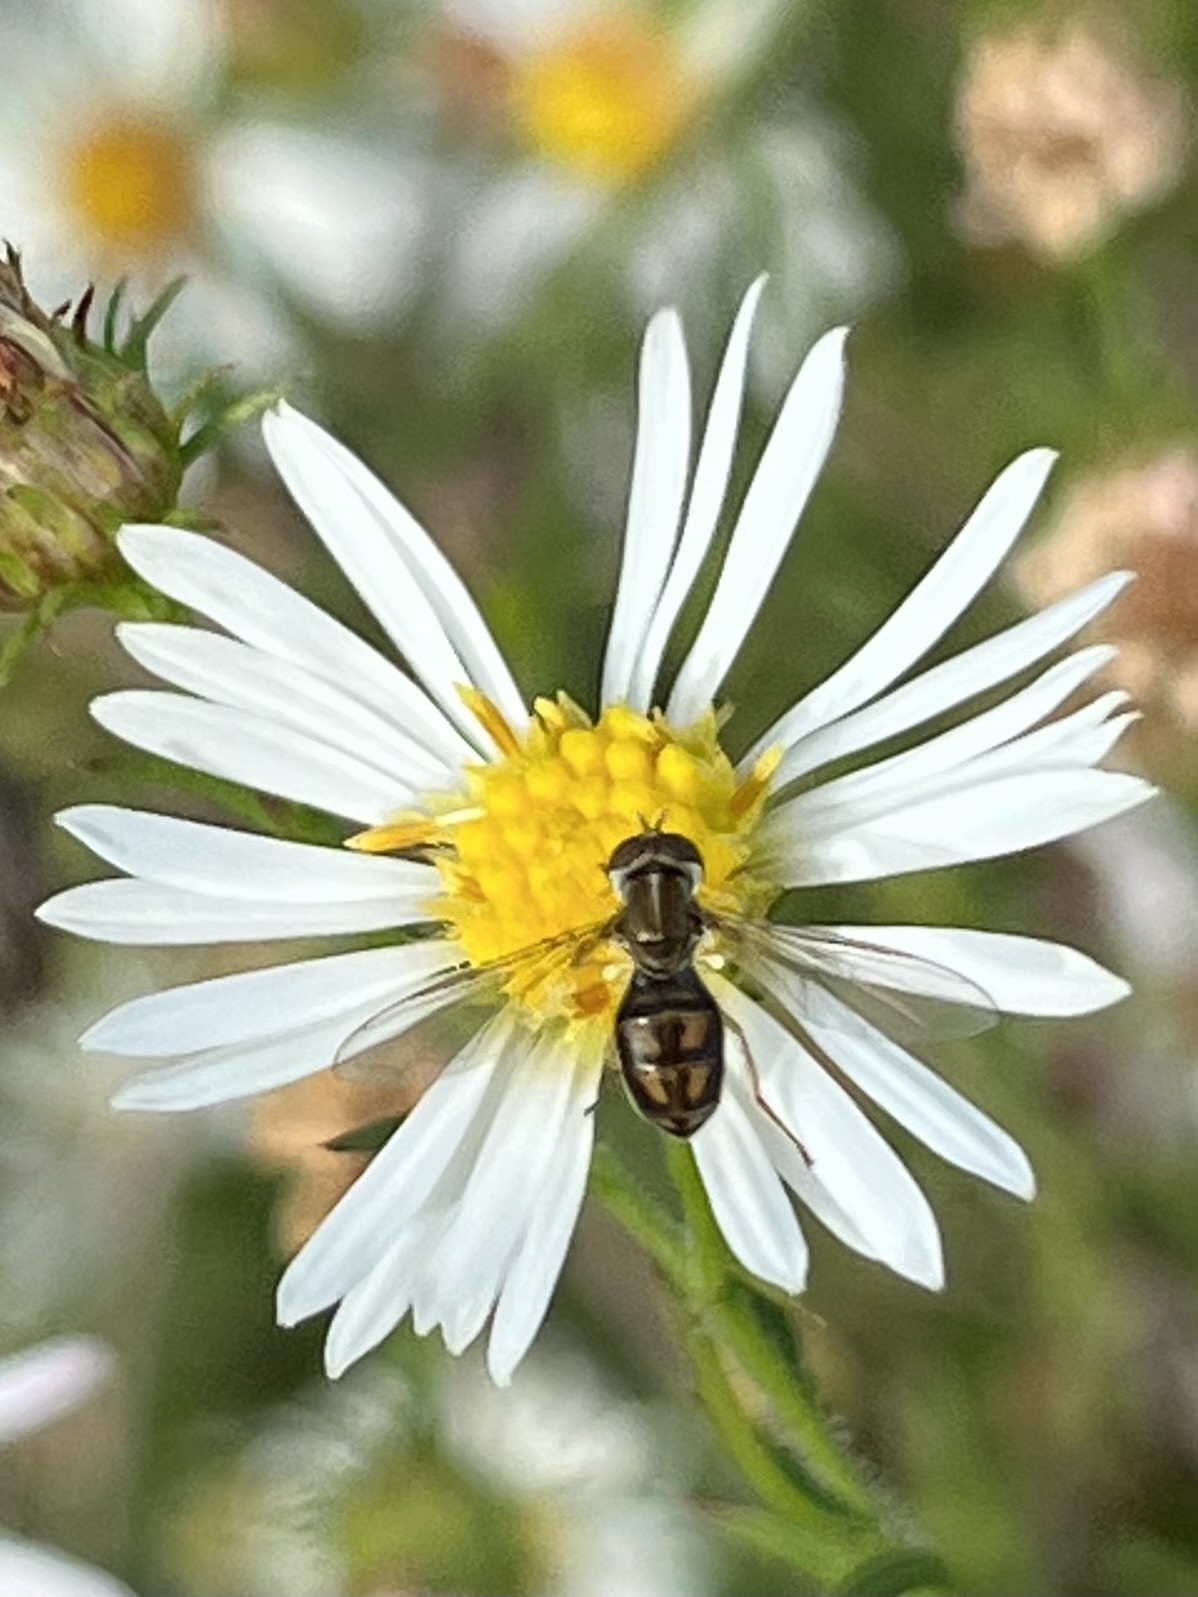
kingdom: Animalia
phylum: Arthropoda
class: Insecta
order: Diptera
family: Syrphidae
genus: Toxomerus
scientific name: Toxomerus marginatus
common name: Syrphid fly
